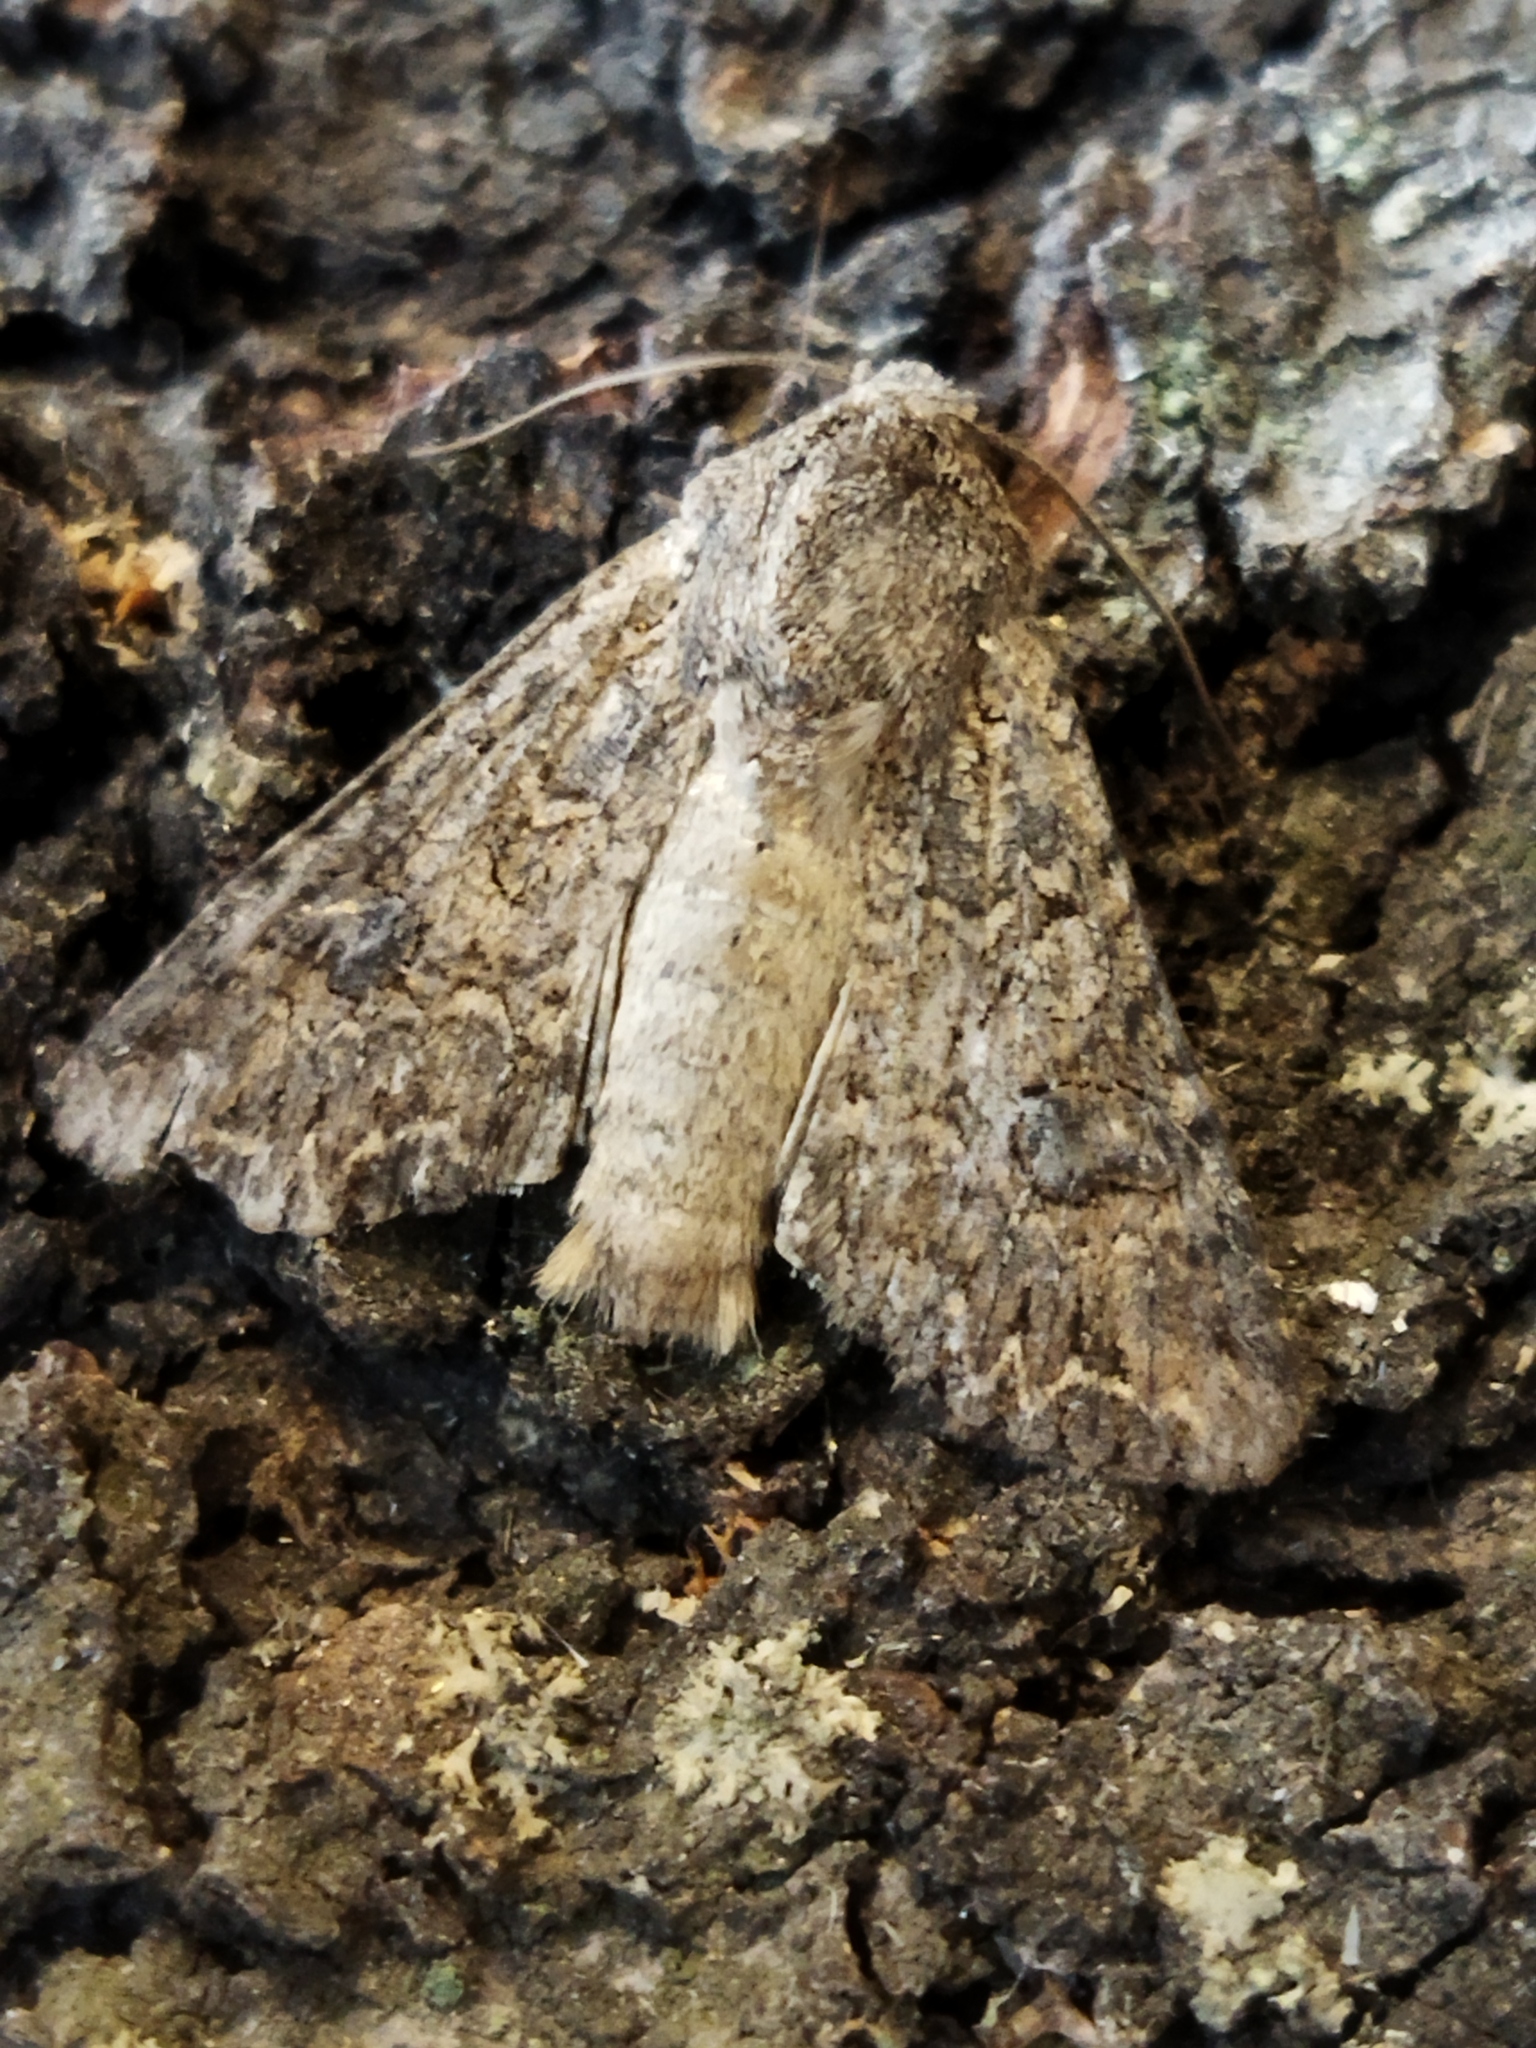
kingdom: Animalia
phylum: Arthropoda
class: Insecta
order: Lepidoptera
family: Noctuidae
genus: Anarta
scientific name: Anarta trifolii
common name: Clover cutworm moth
